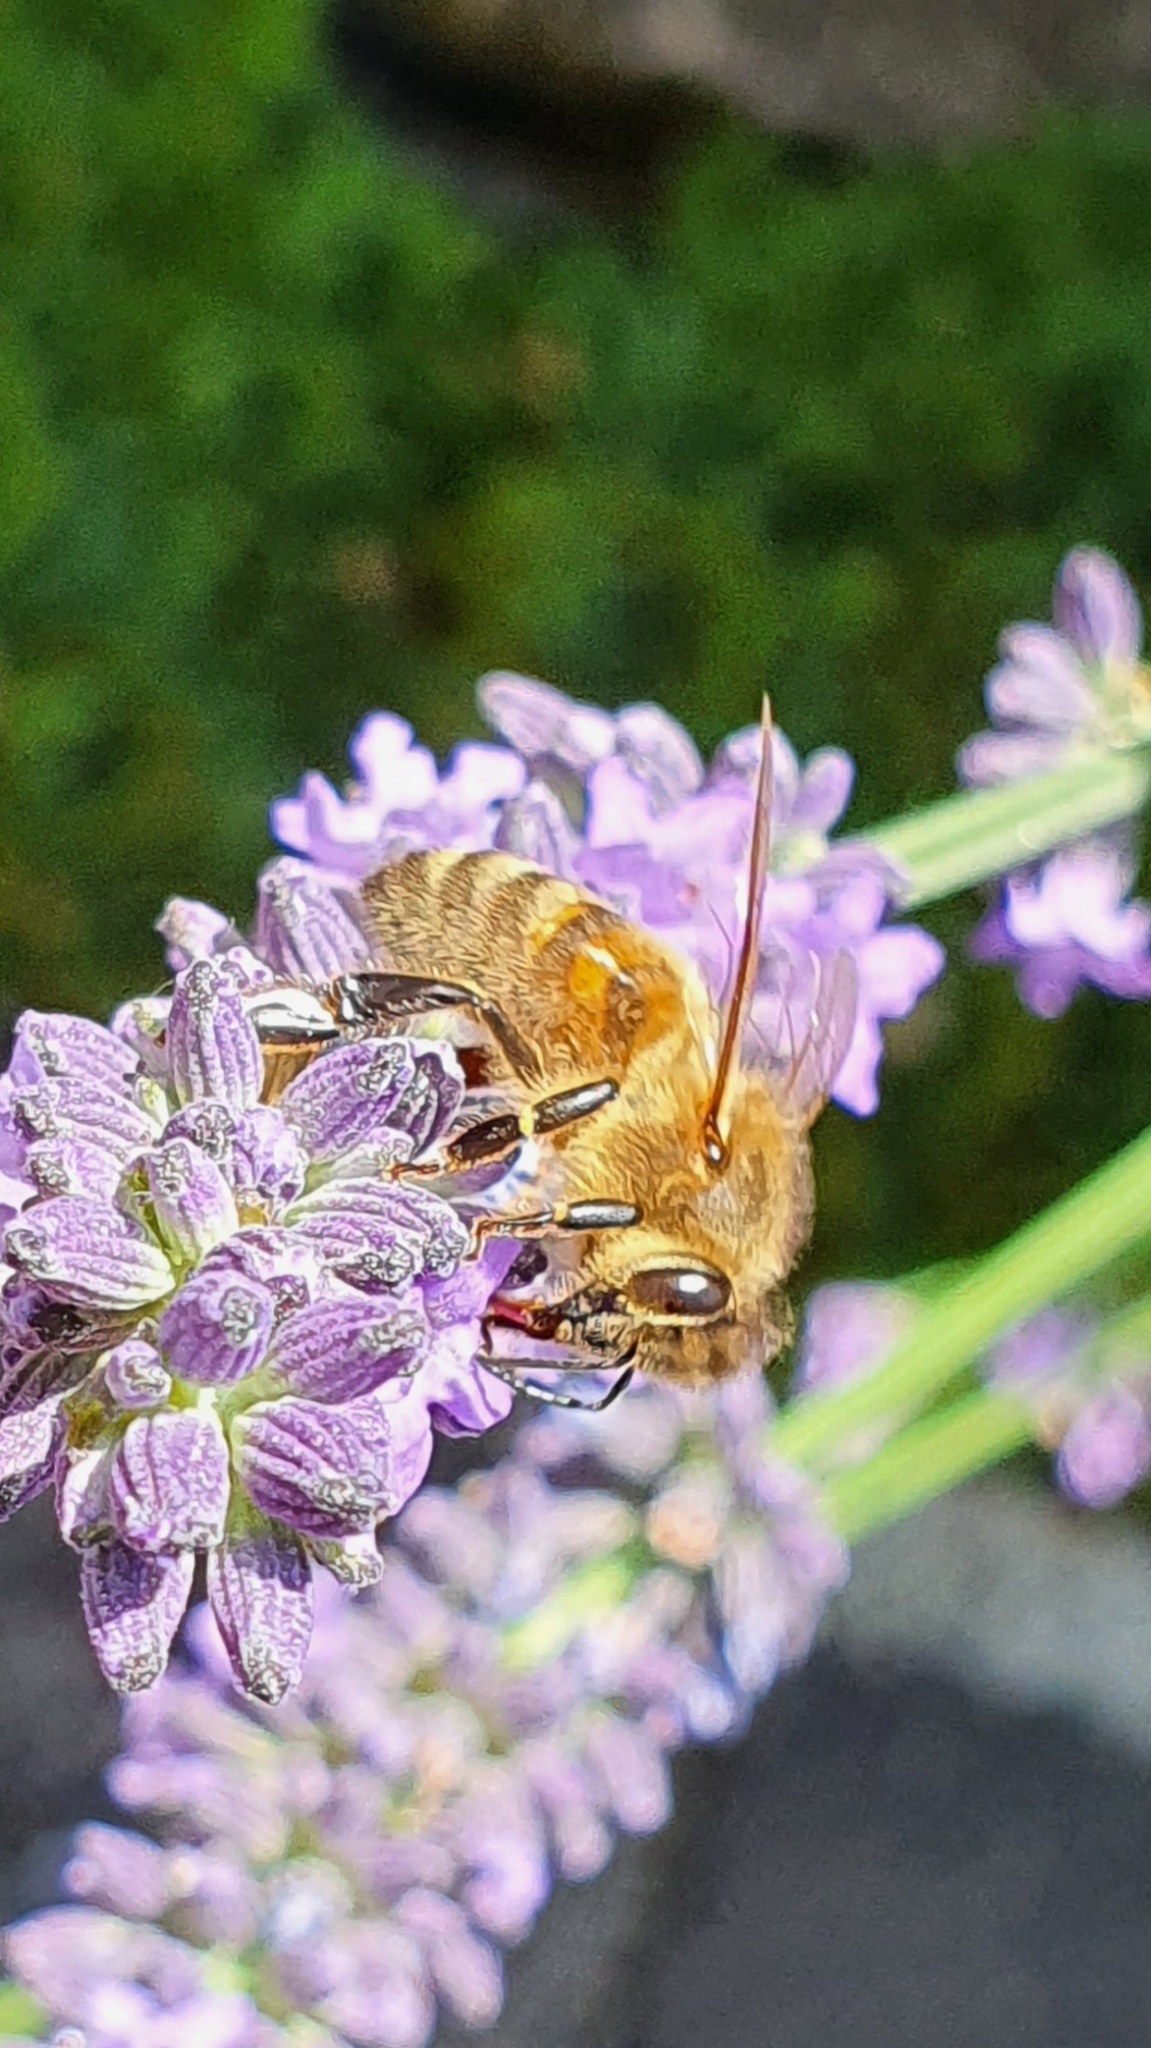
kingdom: Animalia
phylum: Arthropoda
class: Insecta
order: Hymenoptera
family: Apidae
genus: Apis
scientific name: Apis mellifera
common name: Honey bee
